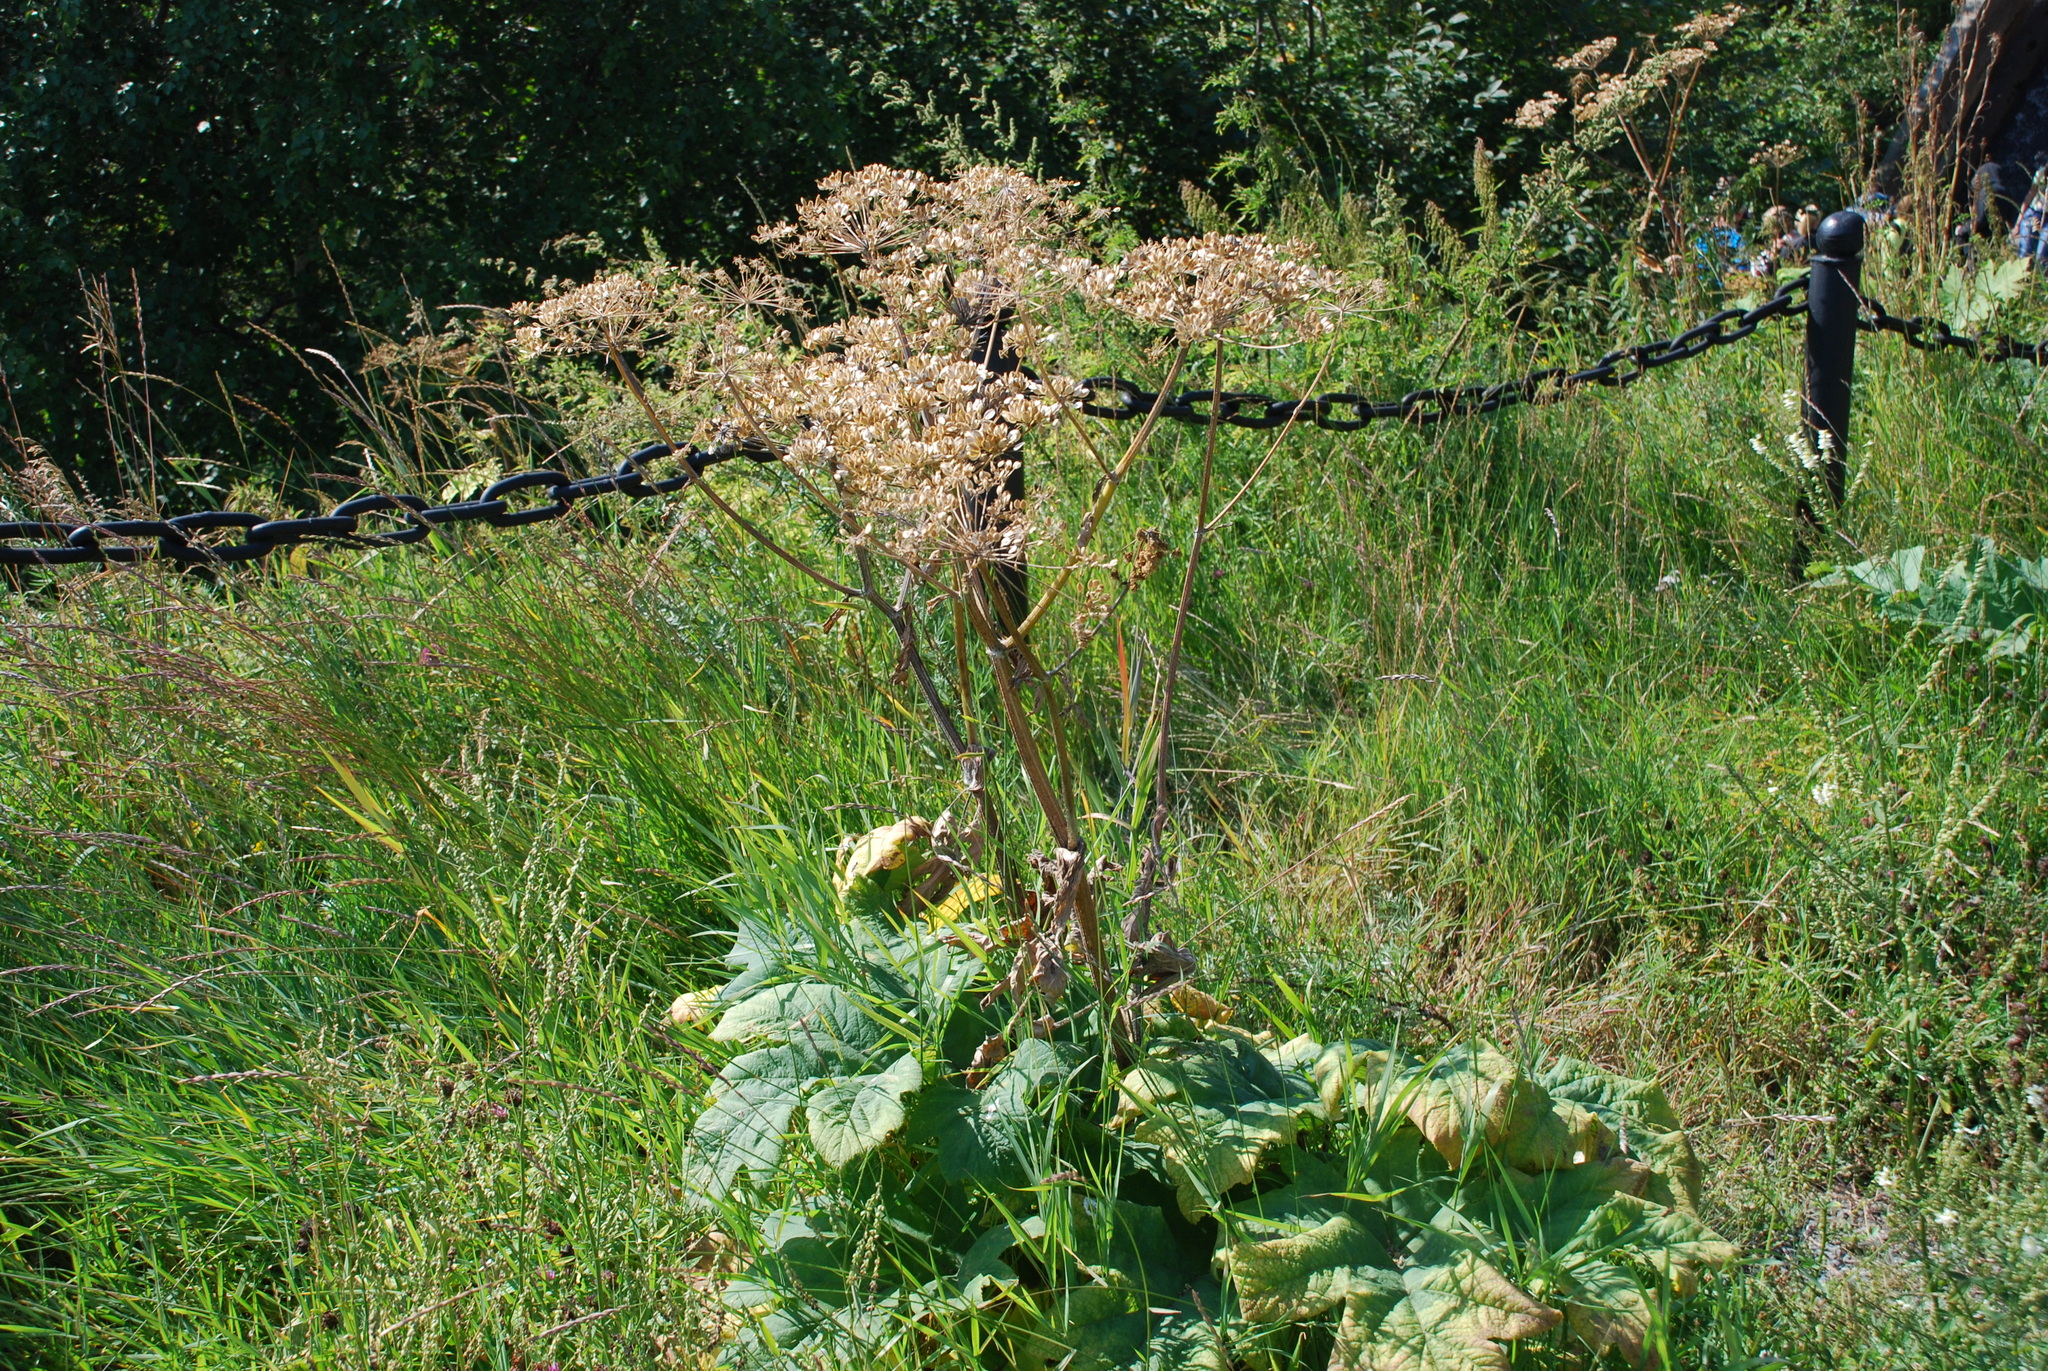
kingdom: Plantae
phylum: Tracheophyta
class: Magnoliopsida
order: Apiales
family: Apiaceae
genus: Heracleum
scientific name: Heracleum dissectum
